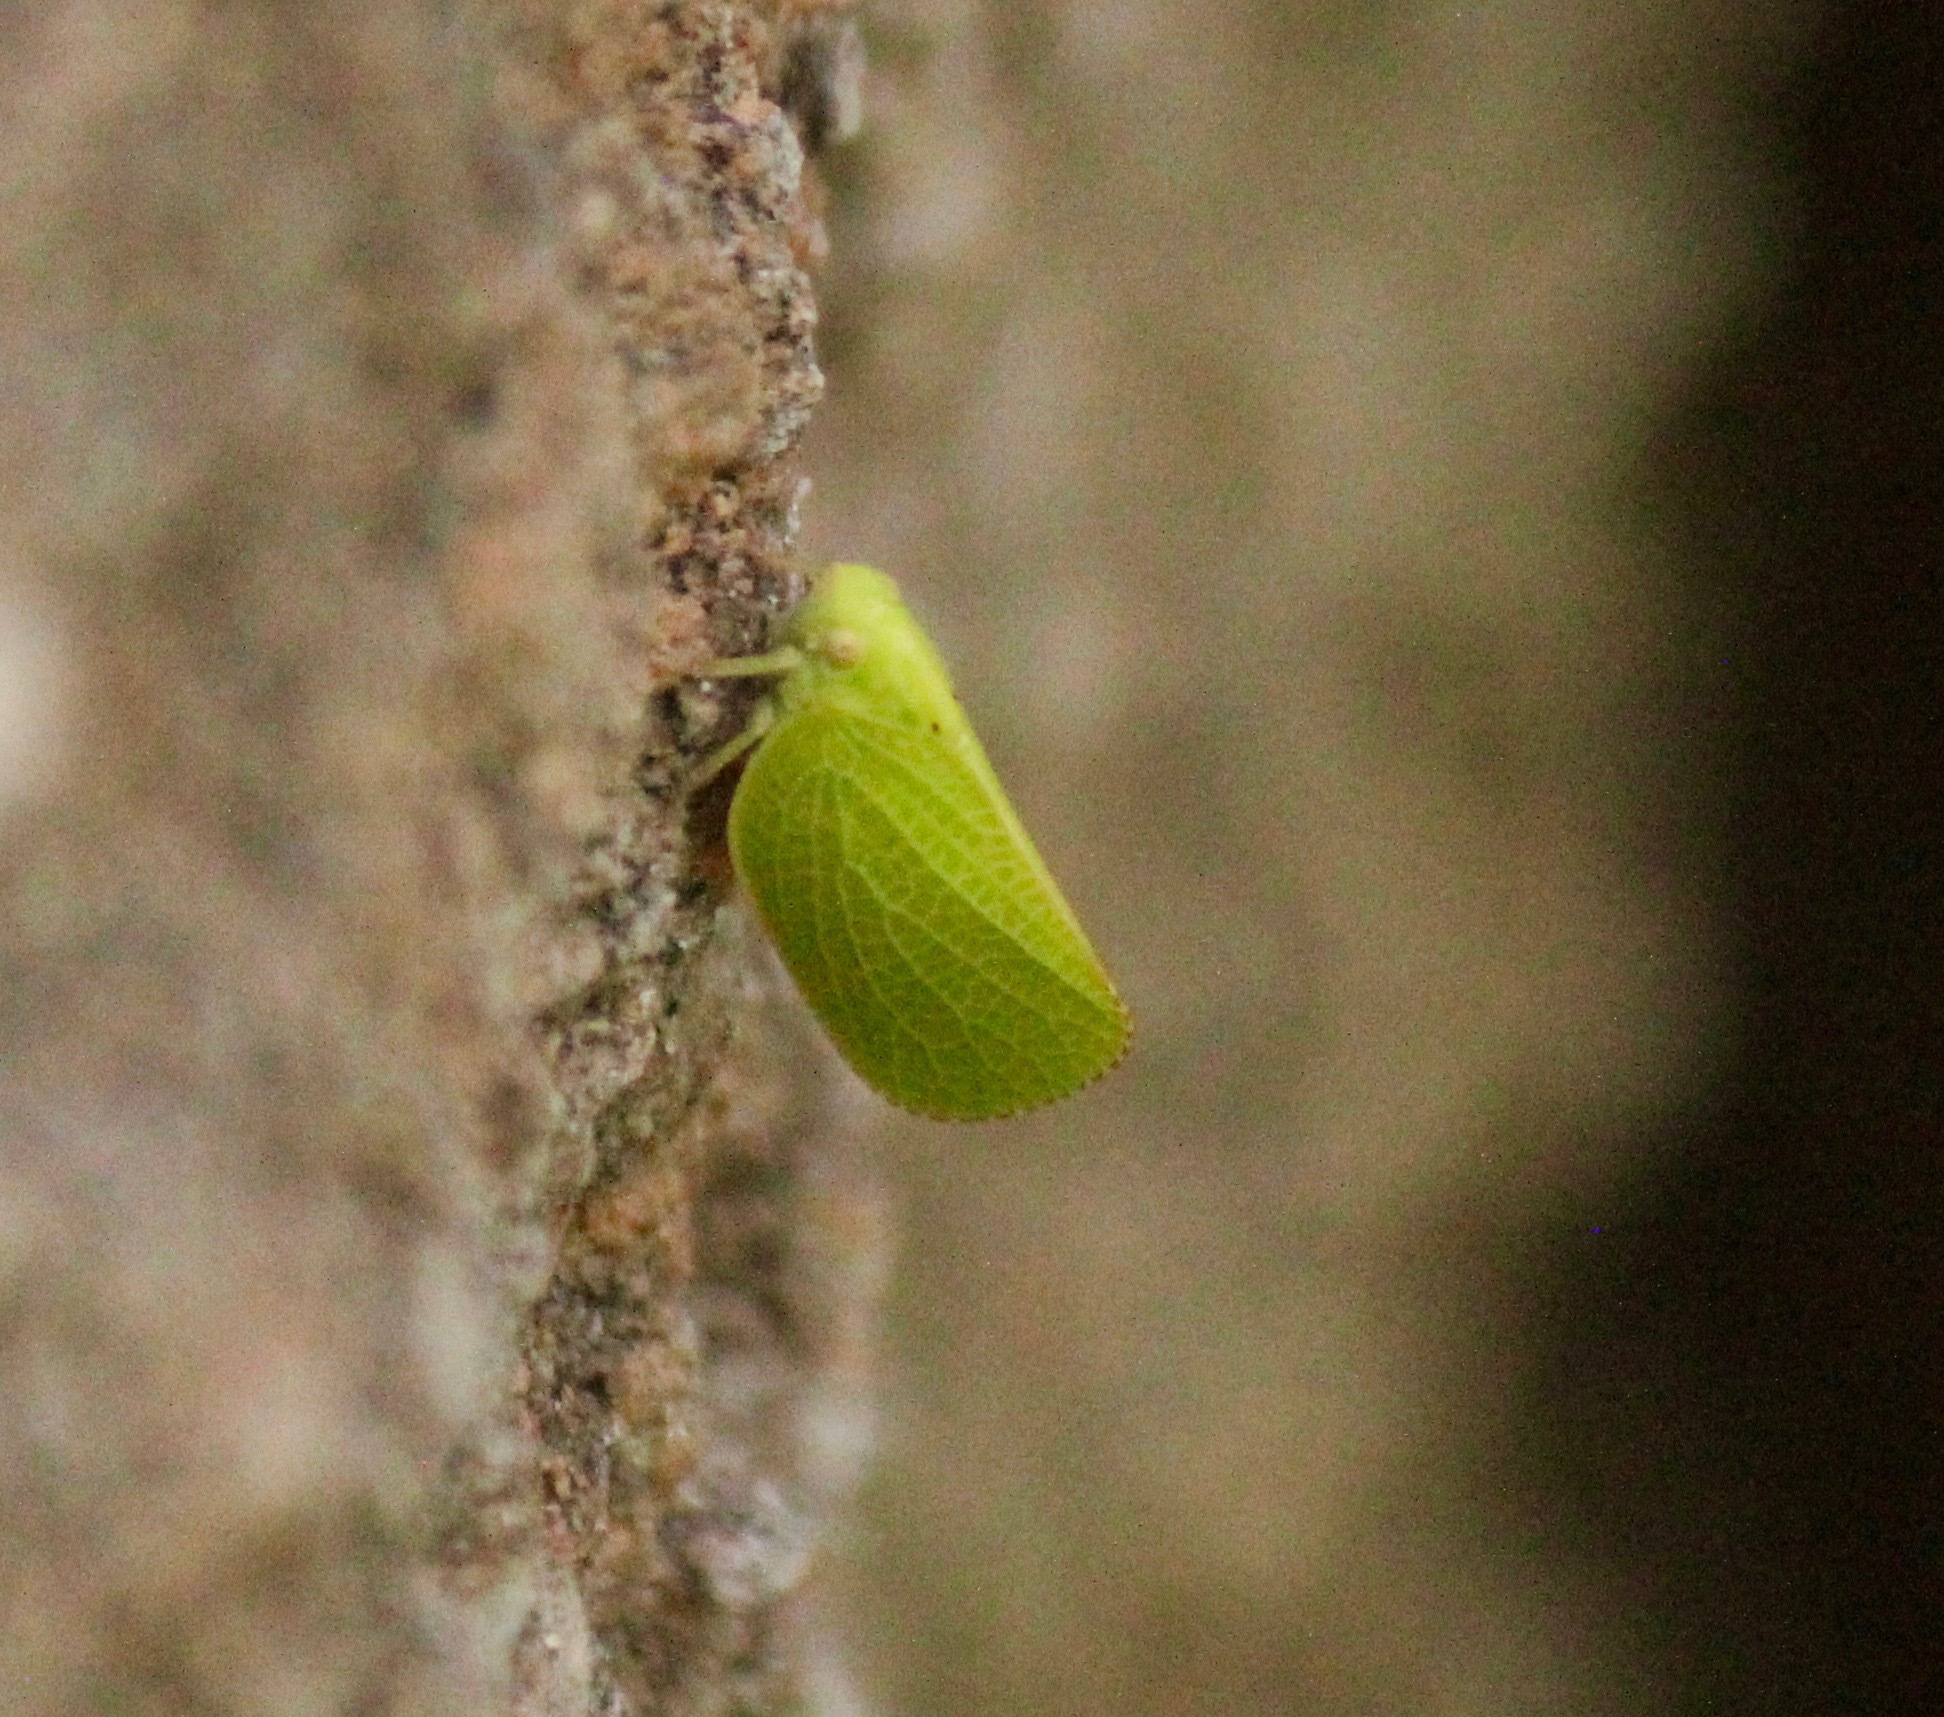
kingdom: Animalia
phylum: Arthropoda
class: Insecta
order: Hemiptera
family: Acanaloniidae
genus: Acanalonia
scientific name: Acanalonia conica
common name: Green cone-headed planthopper
